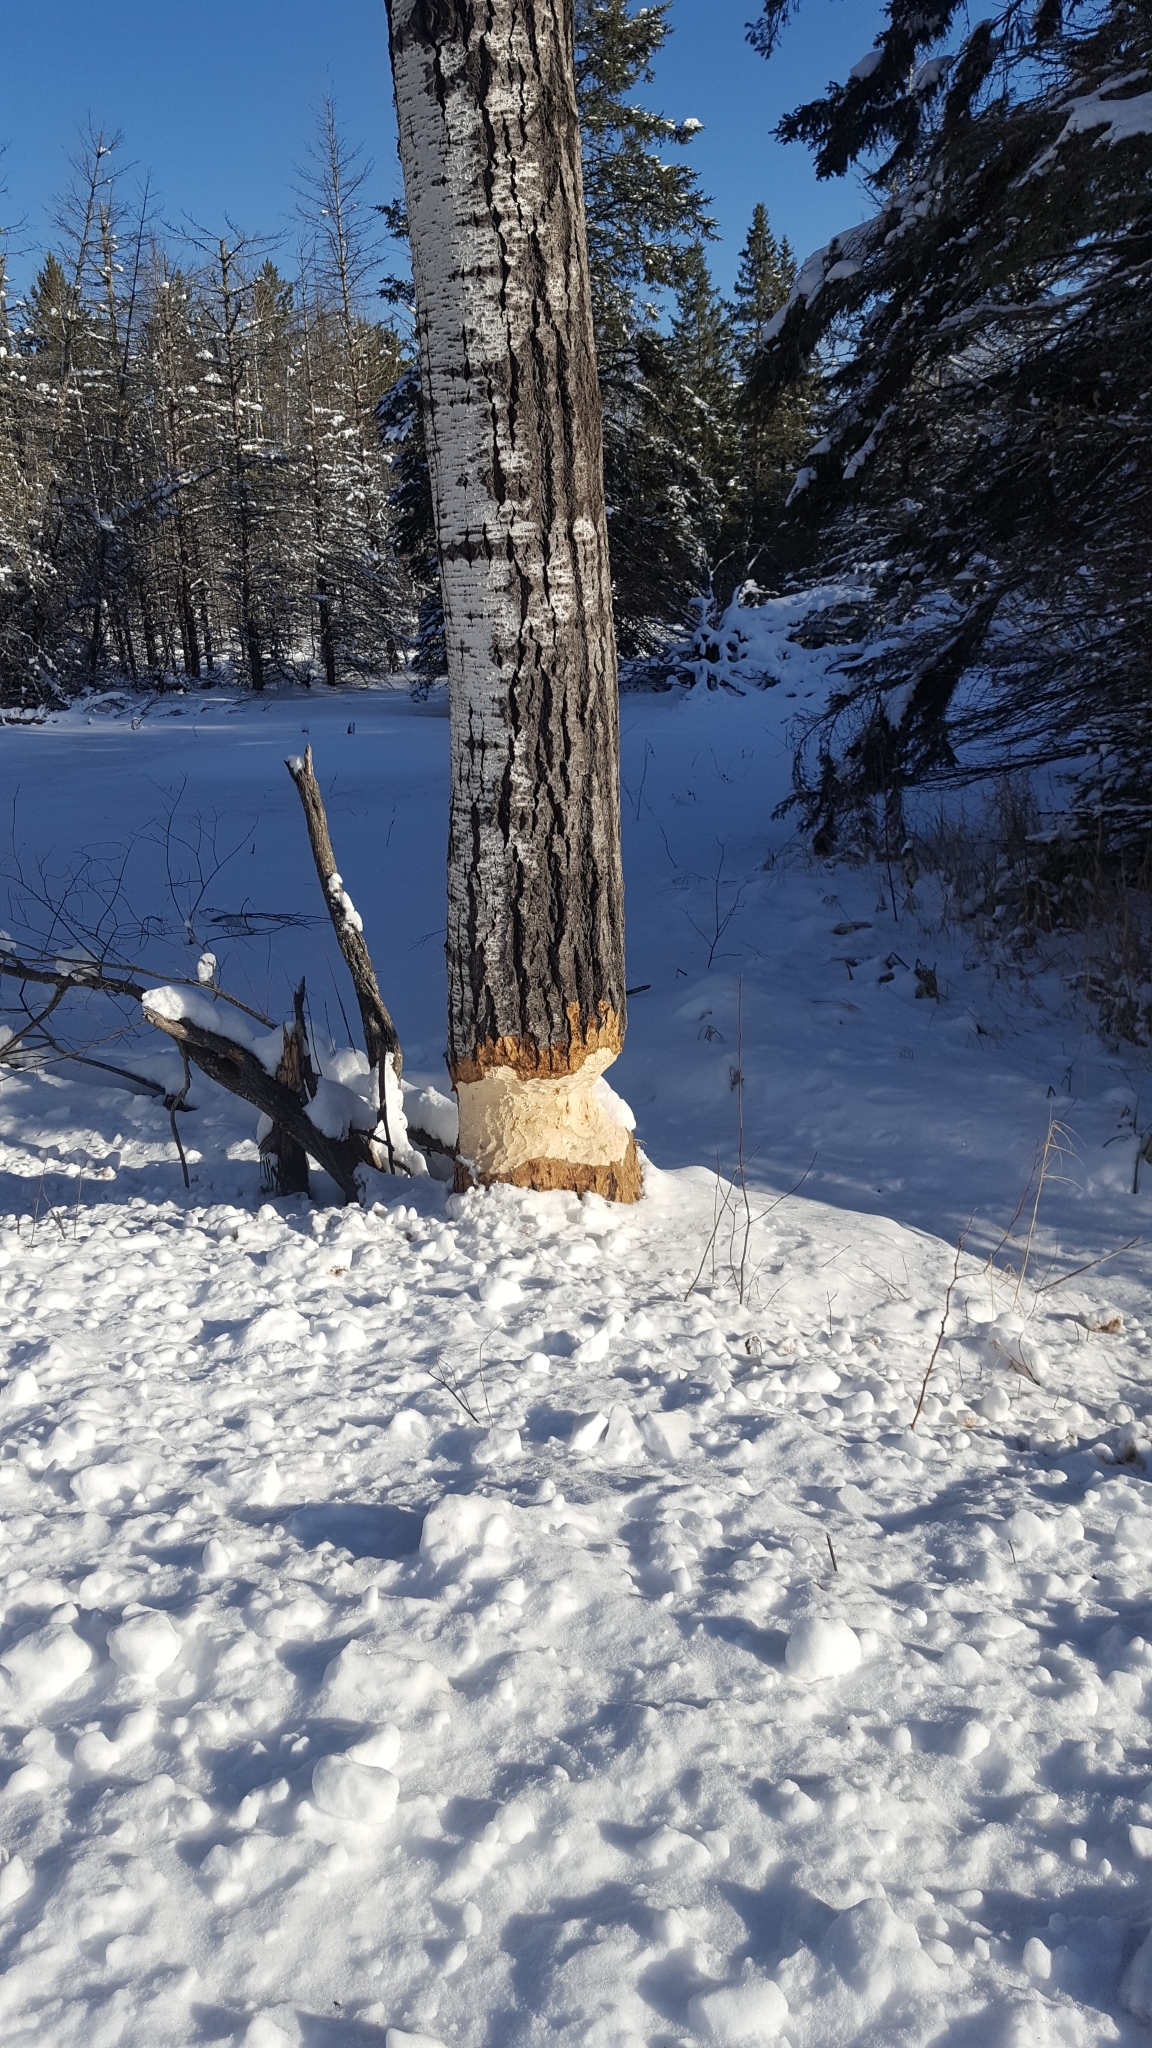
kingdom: Animalia
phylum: Chordata
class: Mammalia
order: Rodentia
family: Castoridae
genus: Castor
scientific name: Castor canadensis
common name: American beaver
